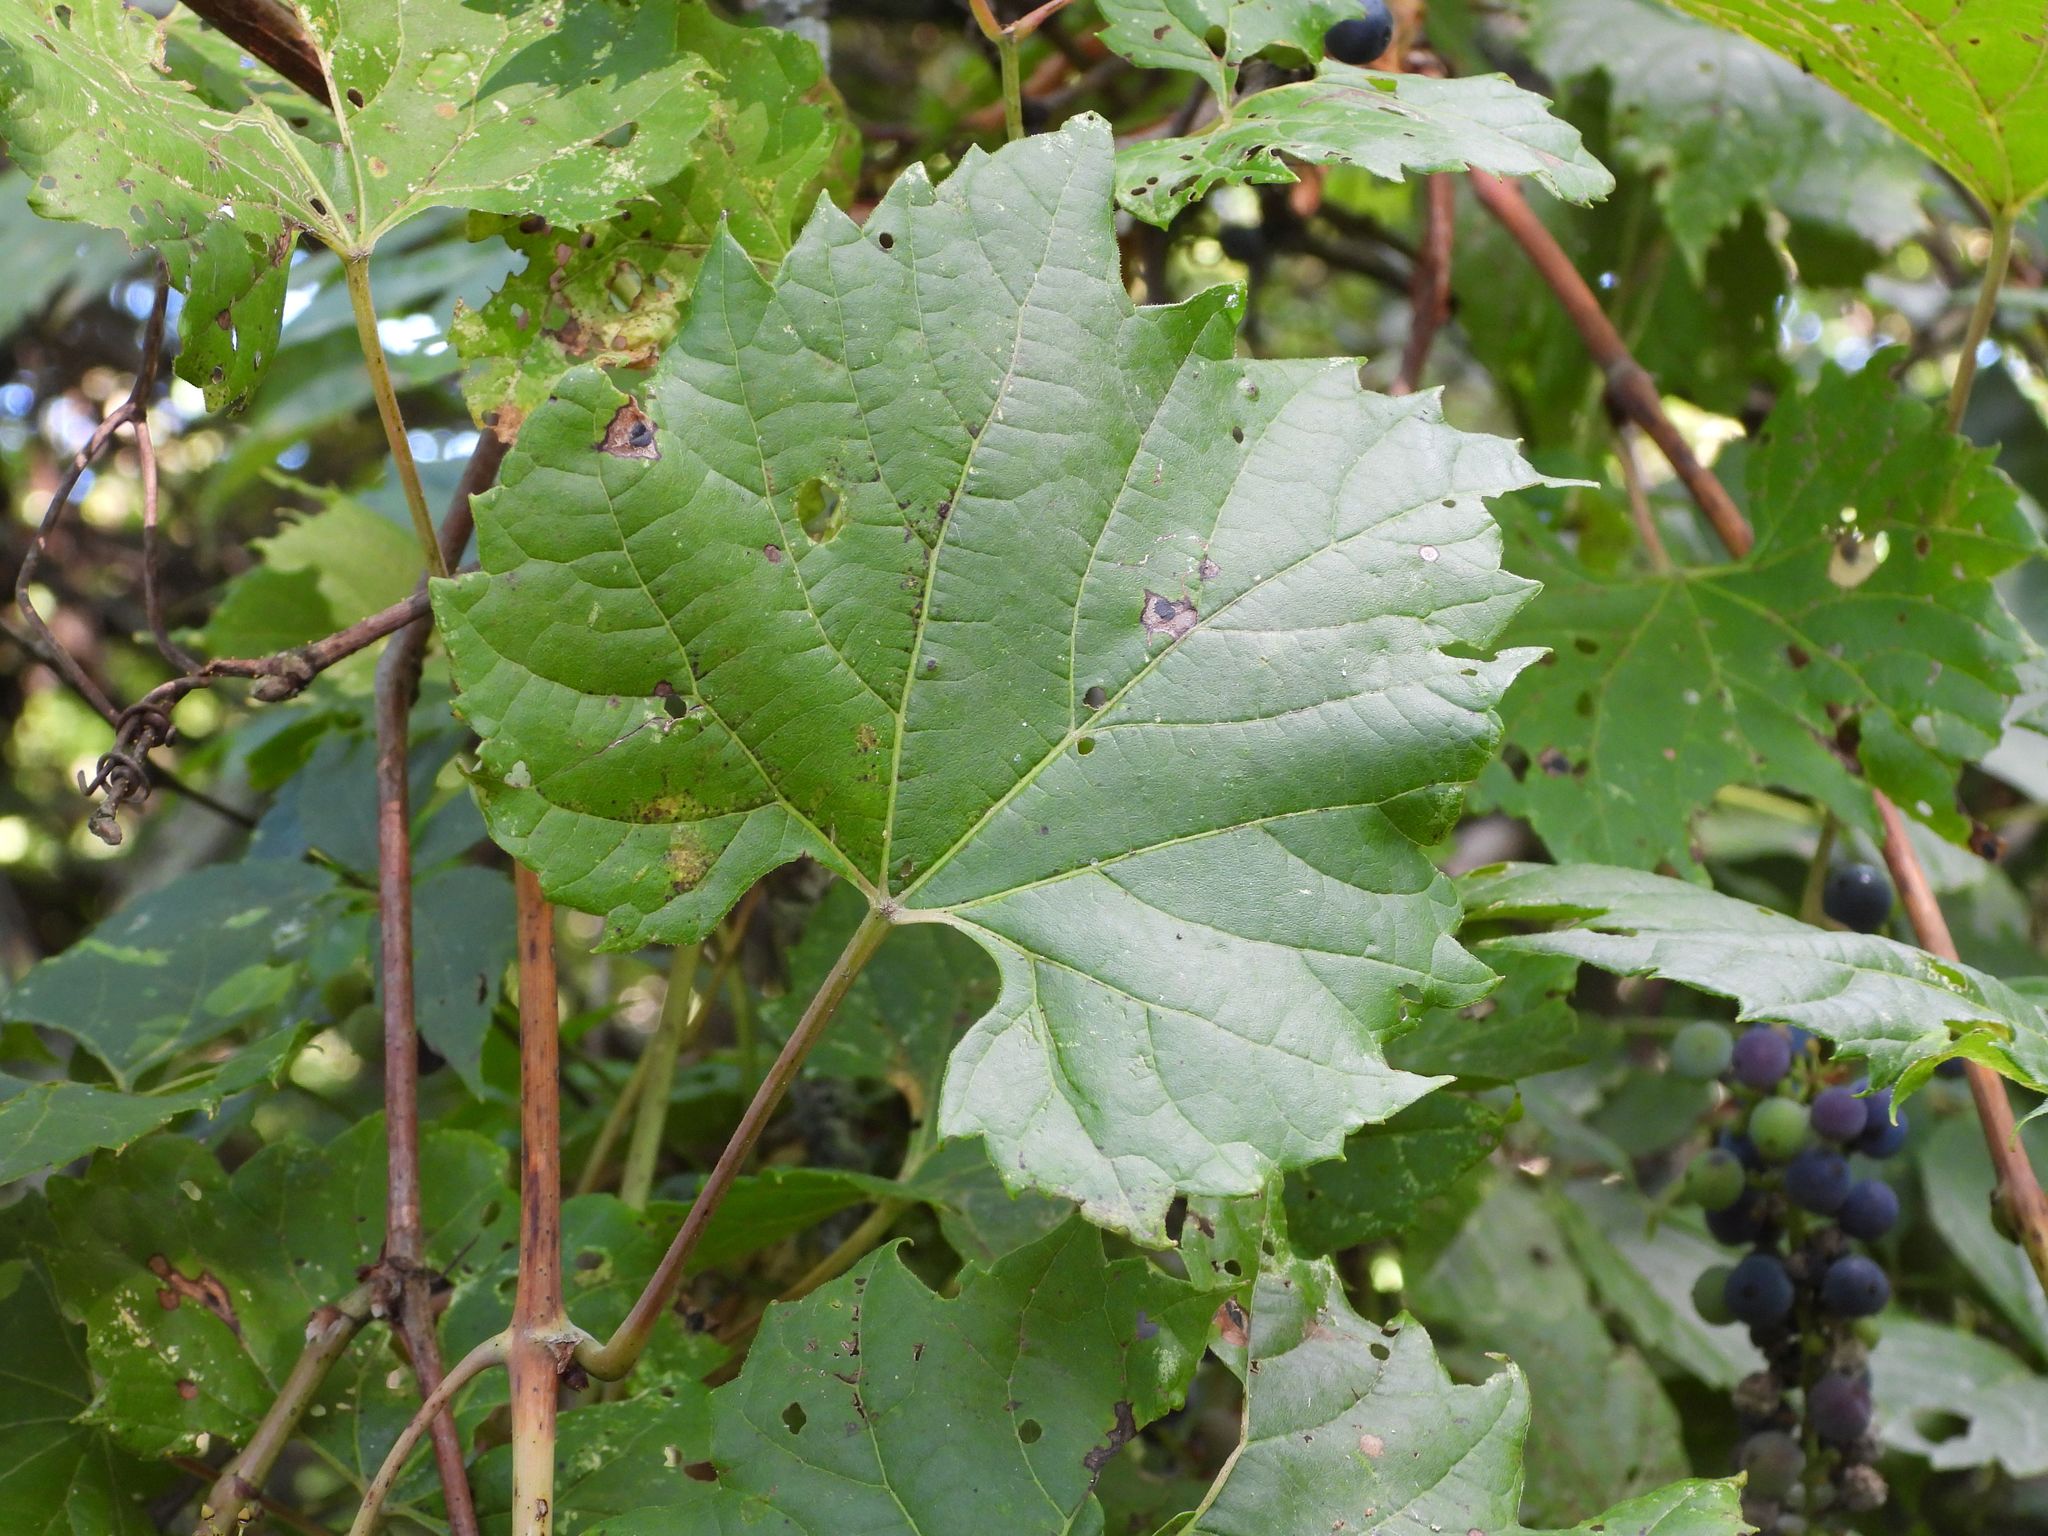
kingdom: Plantae
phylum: Tracheophyta
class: Magnoliopsida
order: Vitales
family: Vitaceae
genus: Vitis
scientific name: Vitis riparia
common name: Frost grape
